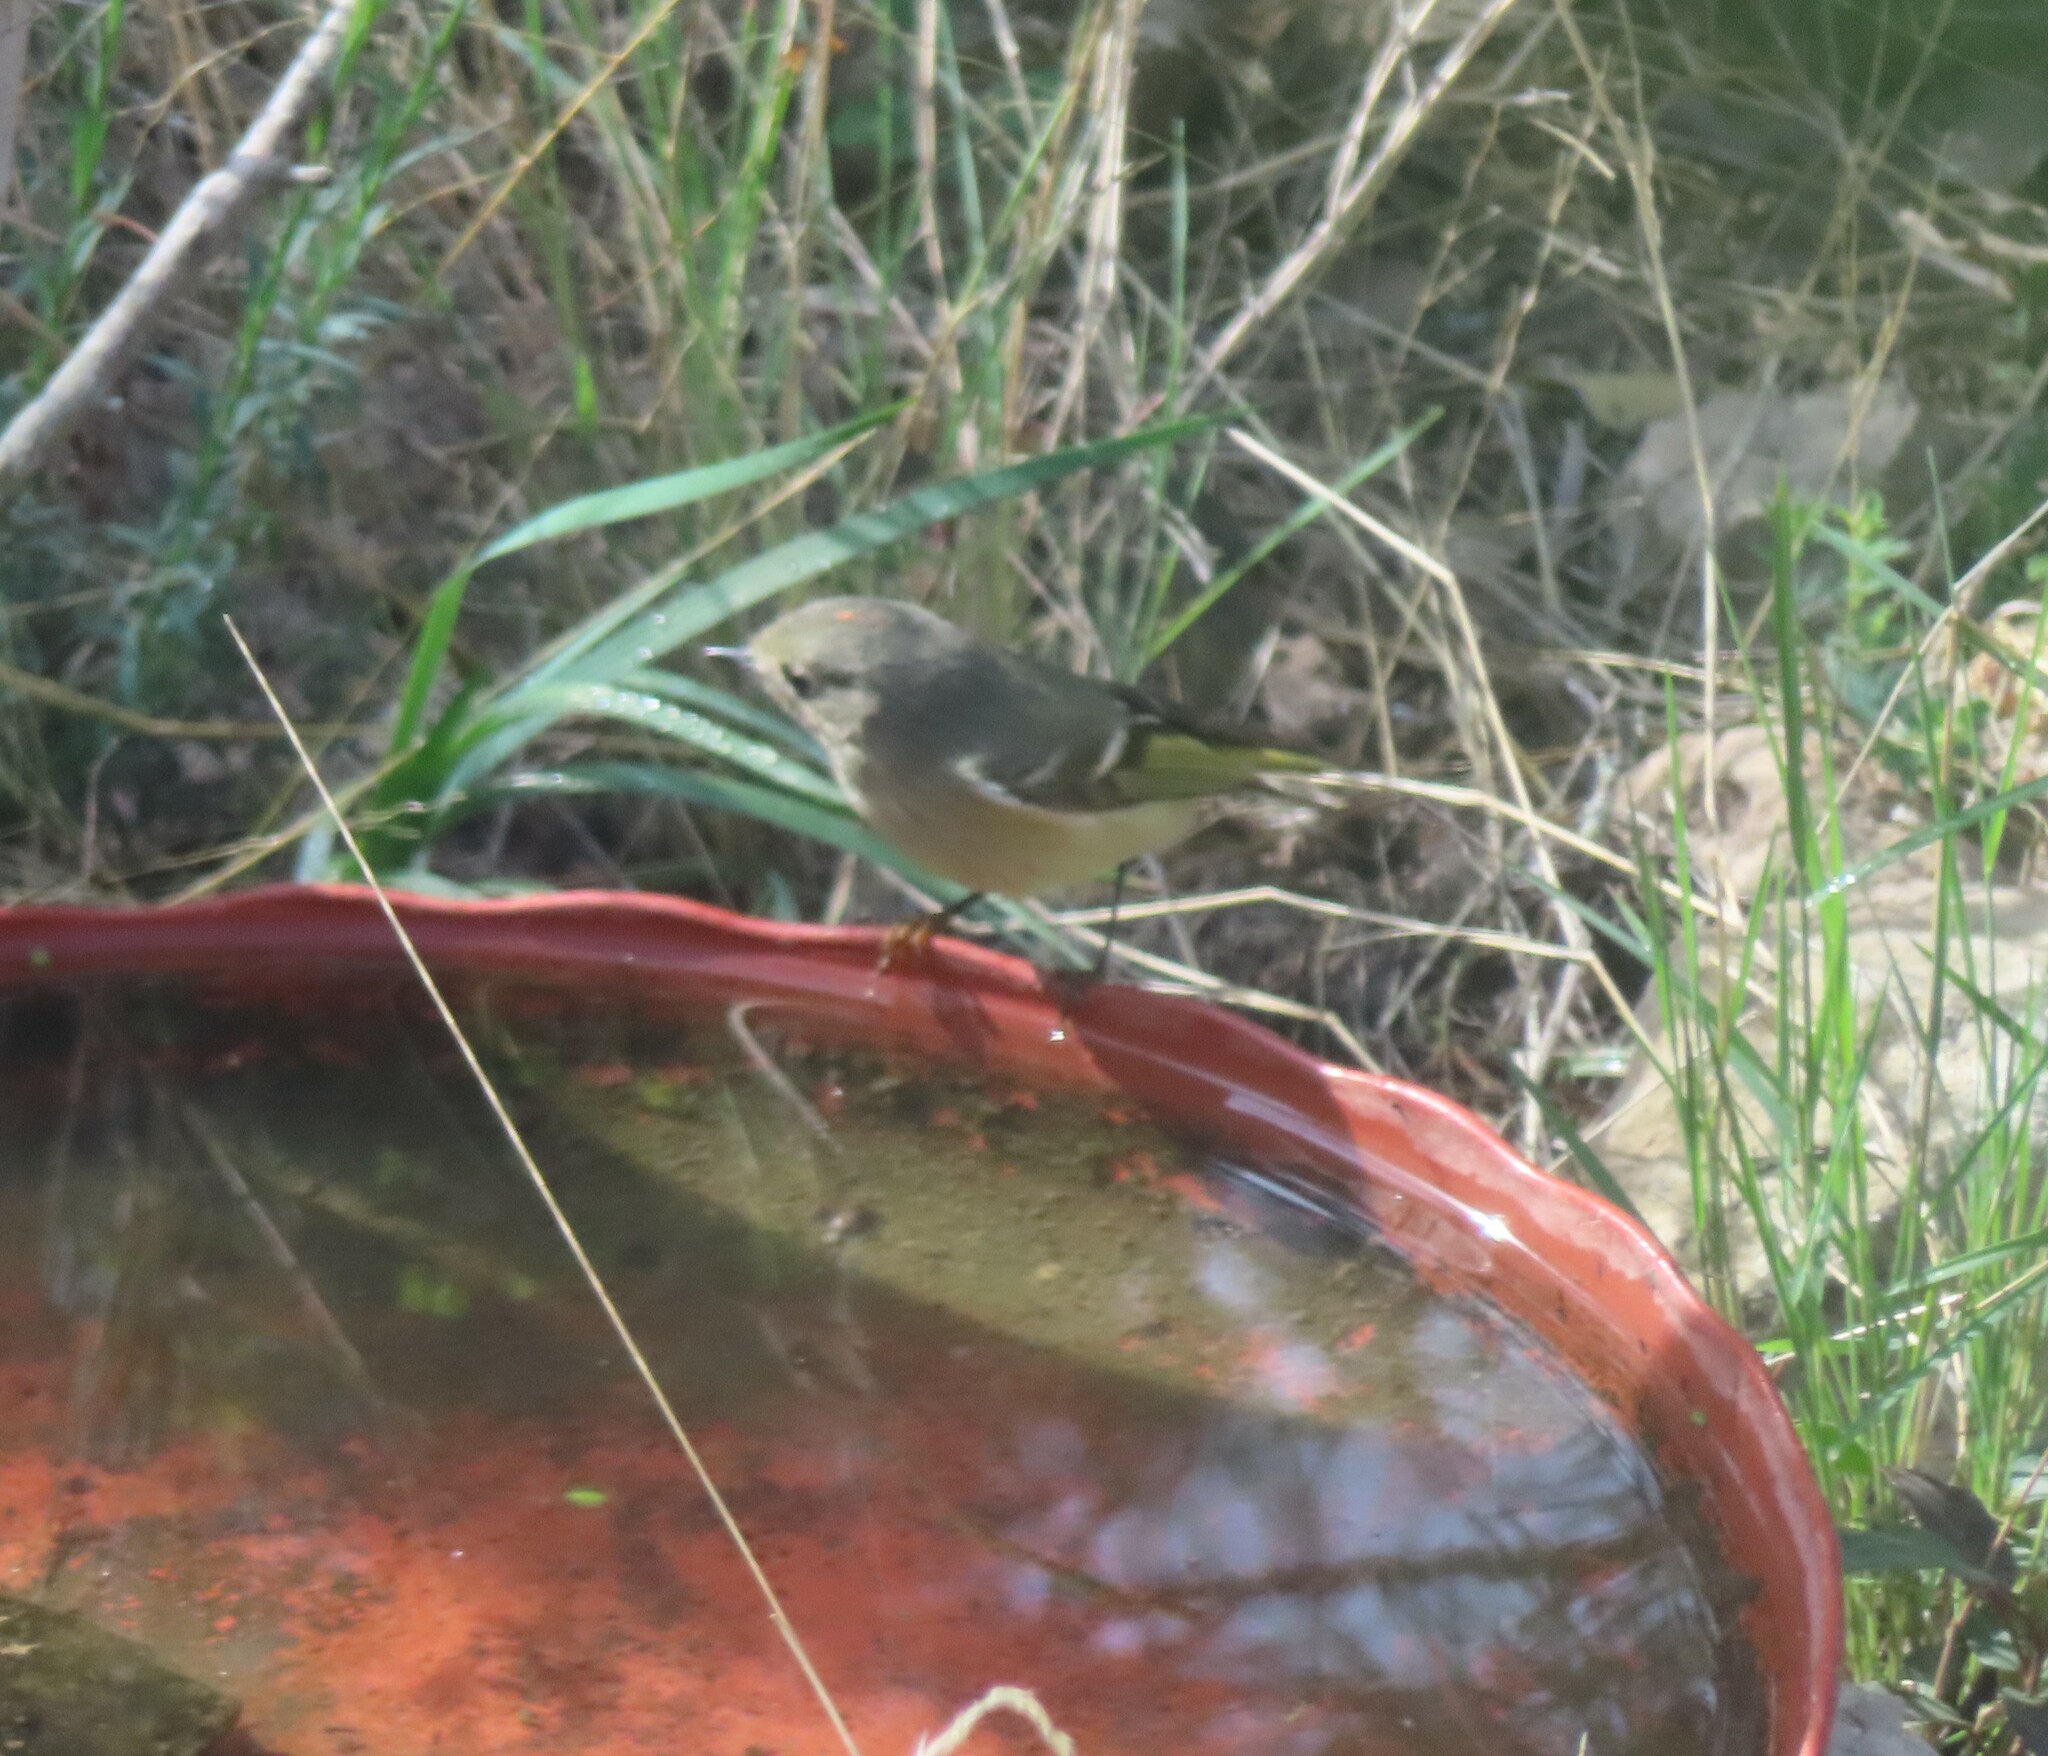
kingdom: Animalia
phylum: Chordata
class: Aves
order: Passeriformes
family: Regulidae
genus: Regulus
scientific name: Regulus calendula
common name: Ruby-crowned kinglet
